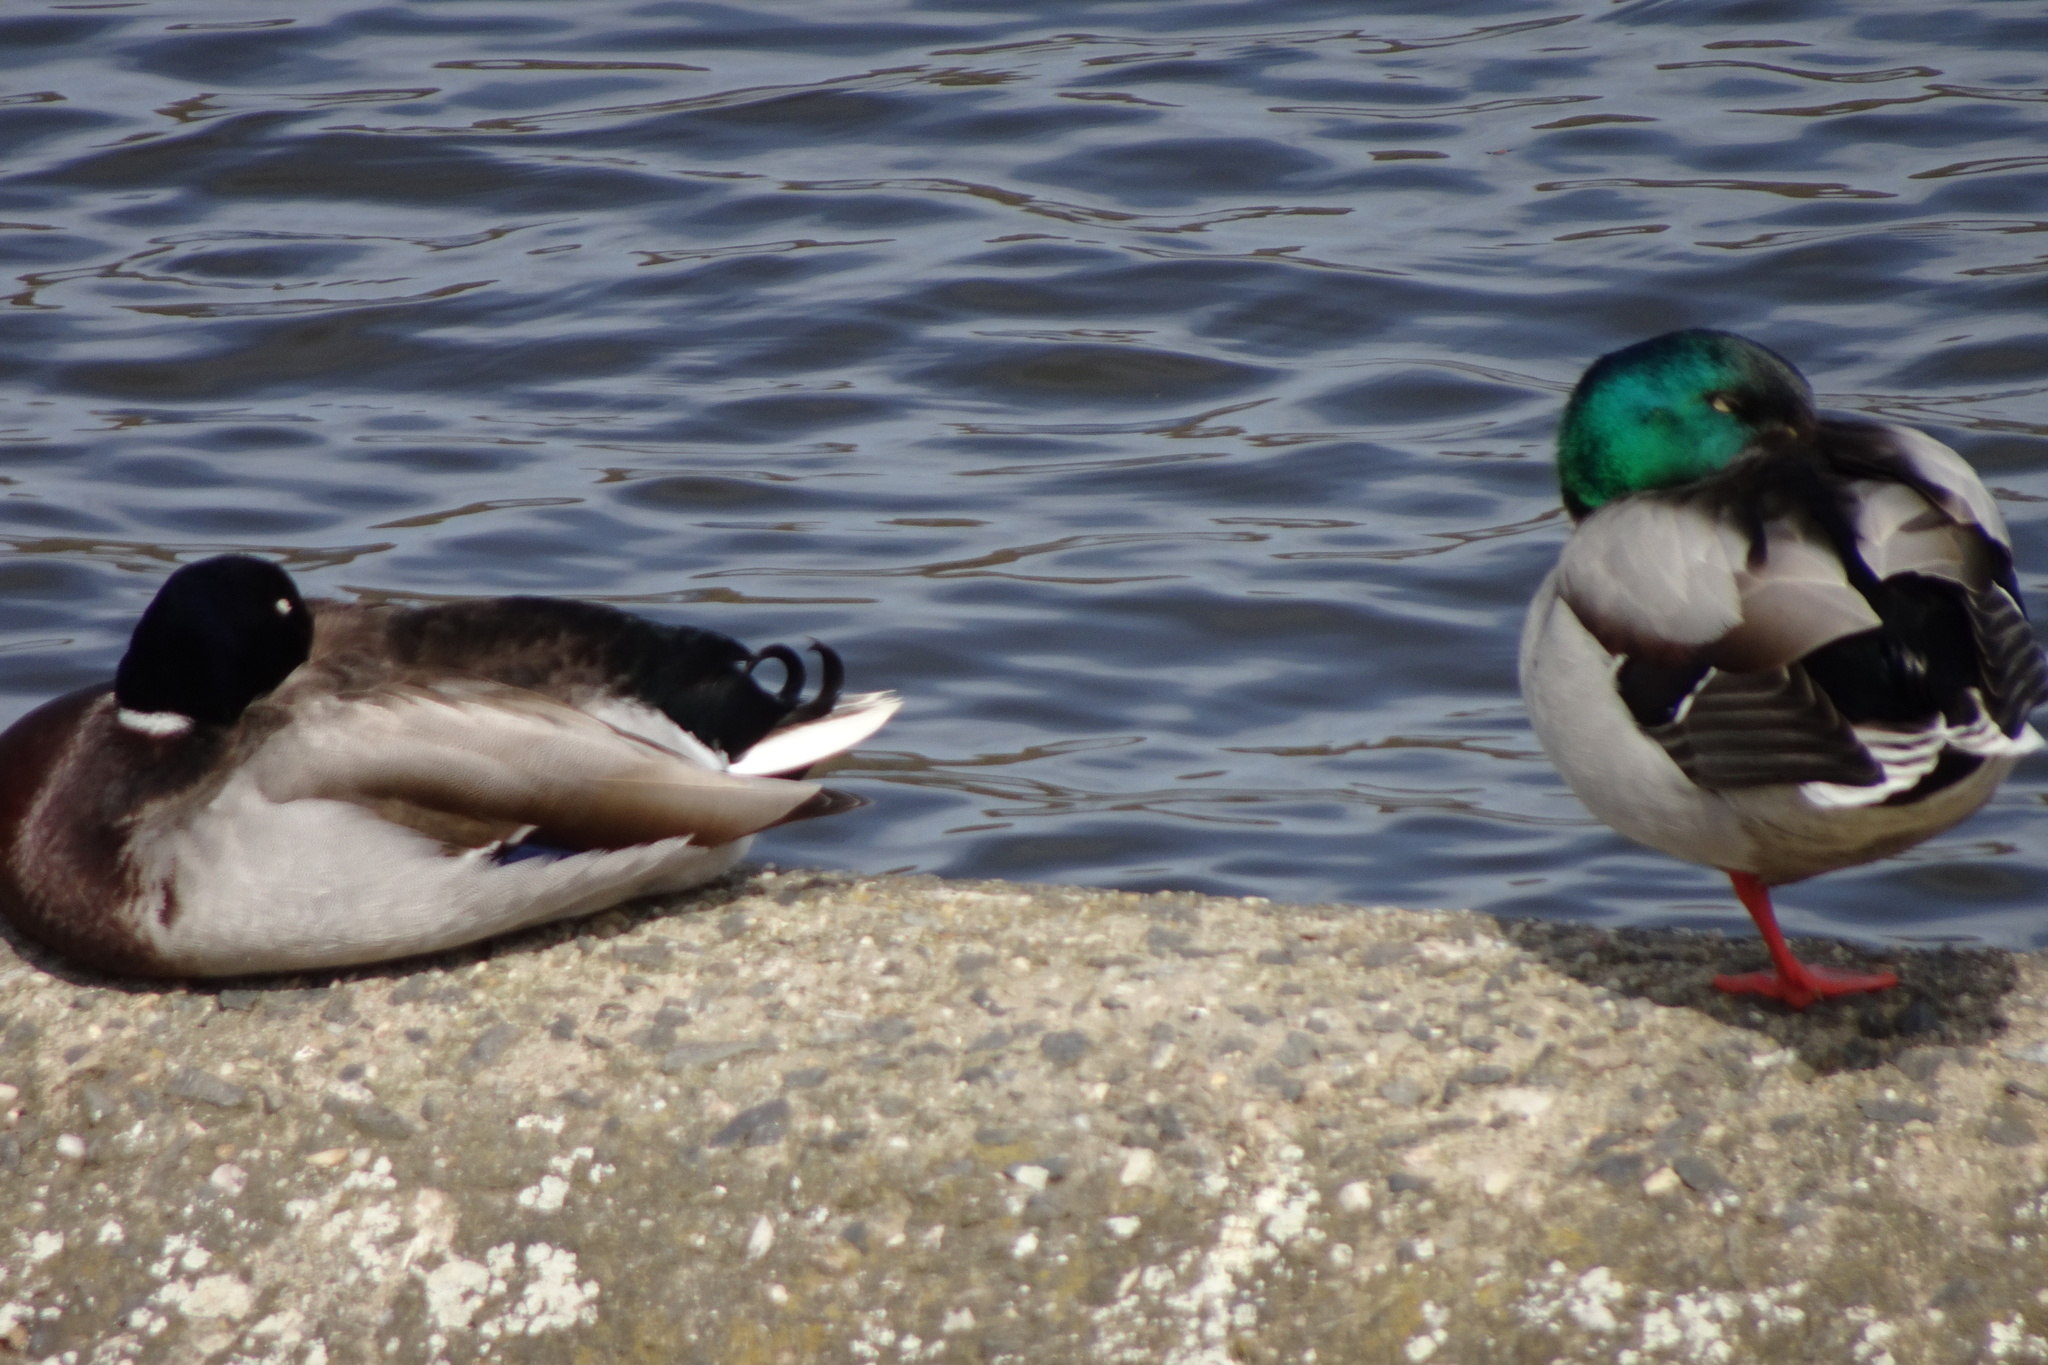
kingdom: Animalia
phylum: Chordata
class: Aves
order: Anseriformes
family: Anatidae
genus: Anas
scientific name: Anas platyrhynchos
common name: Mallard
